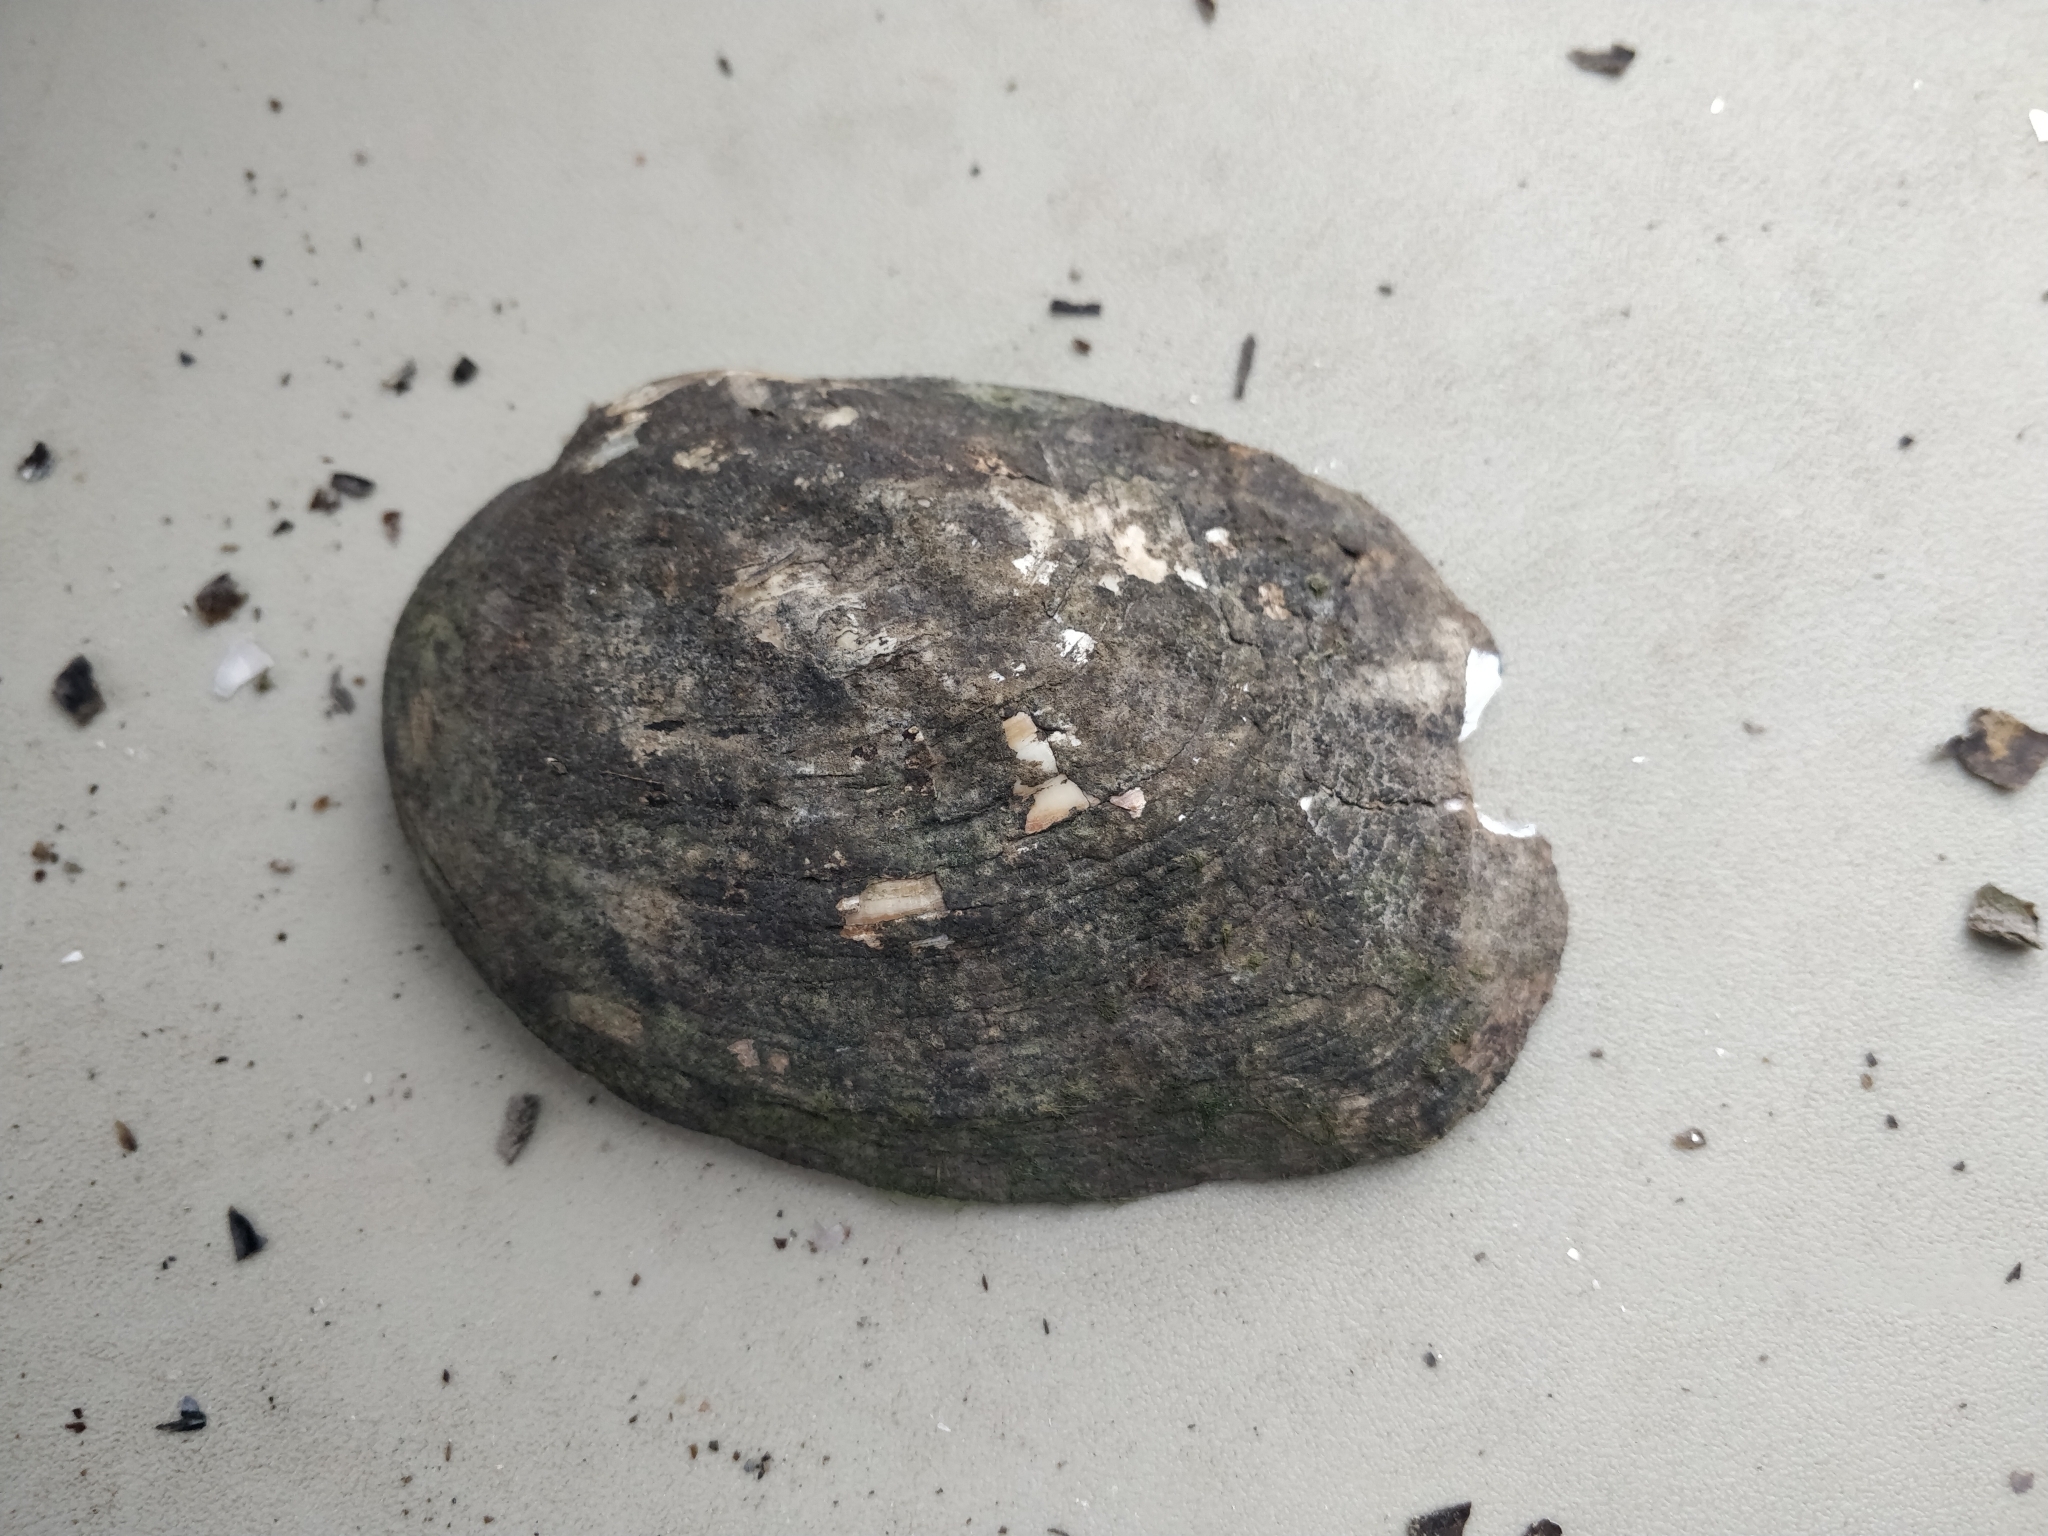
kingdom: Animalia
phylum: Mollusca
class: Bivalvia
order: Unionida
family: Unionidae
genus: Amblema
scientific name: Amblema plicata
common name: Threeridge
